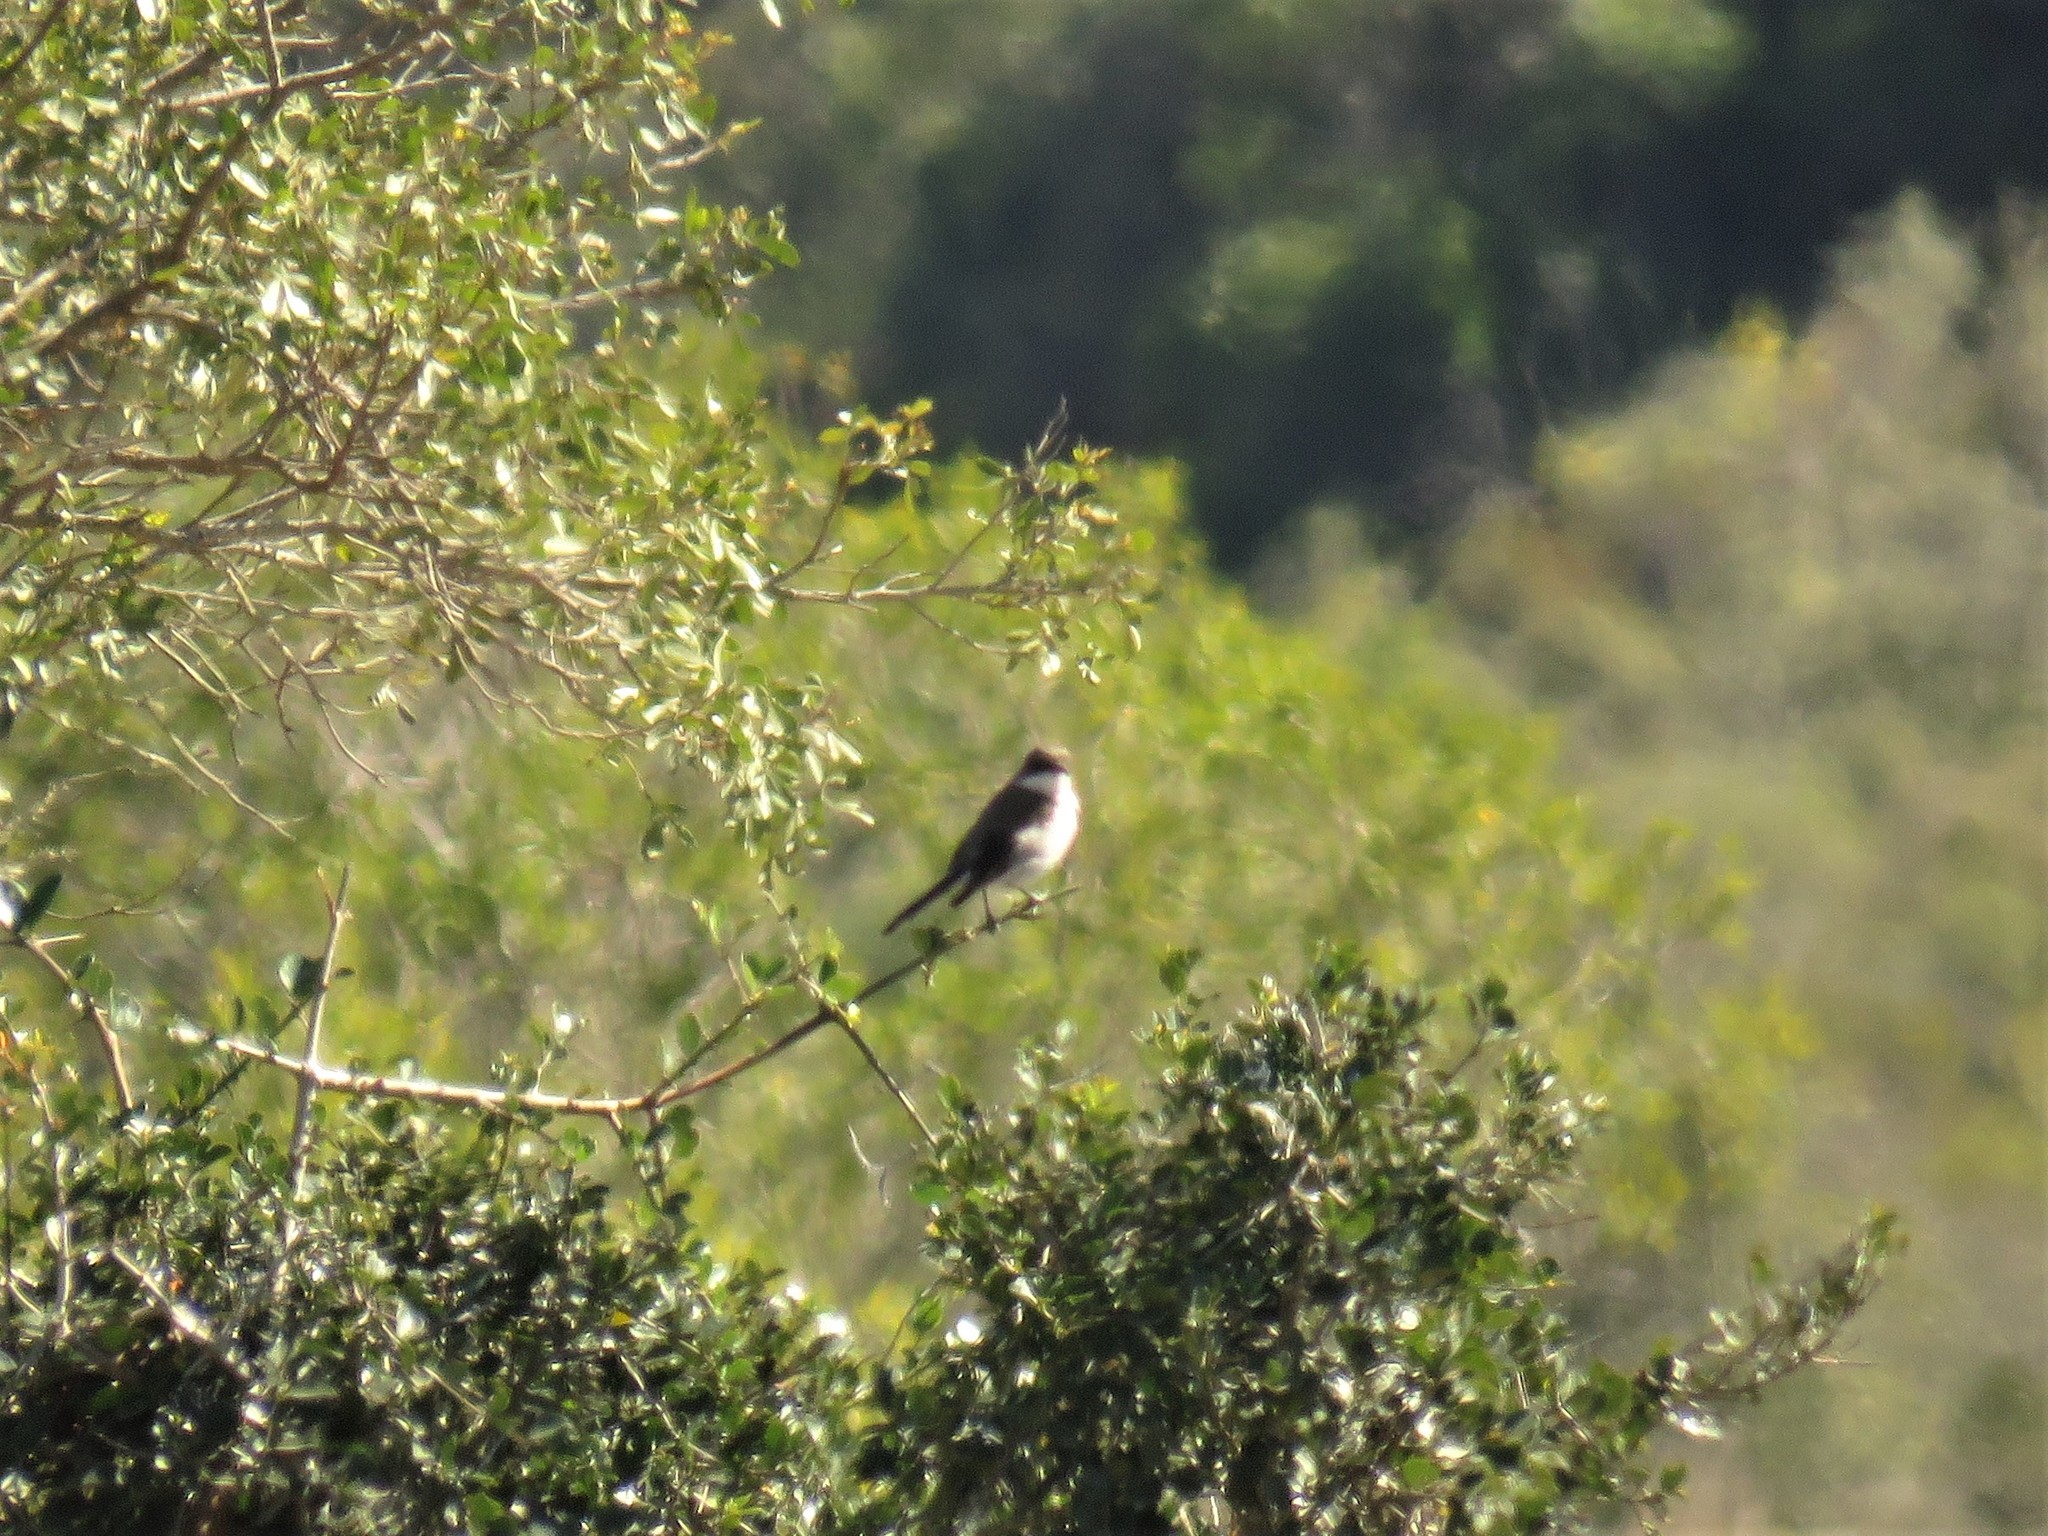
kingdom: Animalia
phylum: Chordata
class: Aves
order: Passeriformes
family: Muscicapidae
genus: Sigelus
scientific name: Sigelus silens
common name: Fiscal flycatcher
